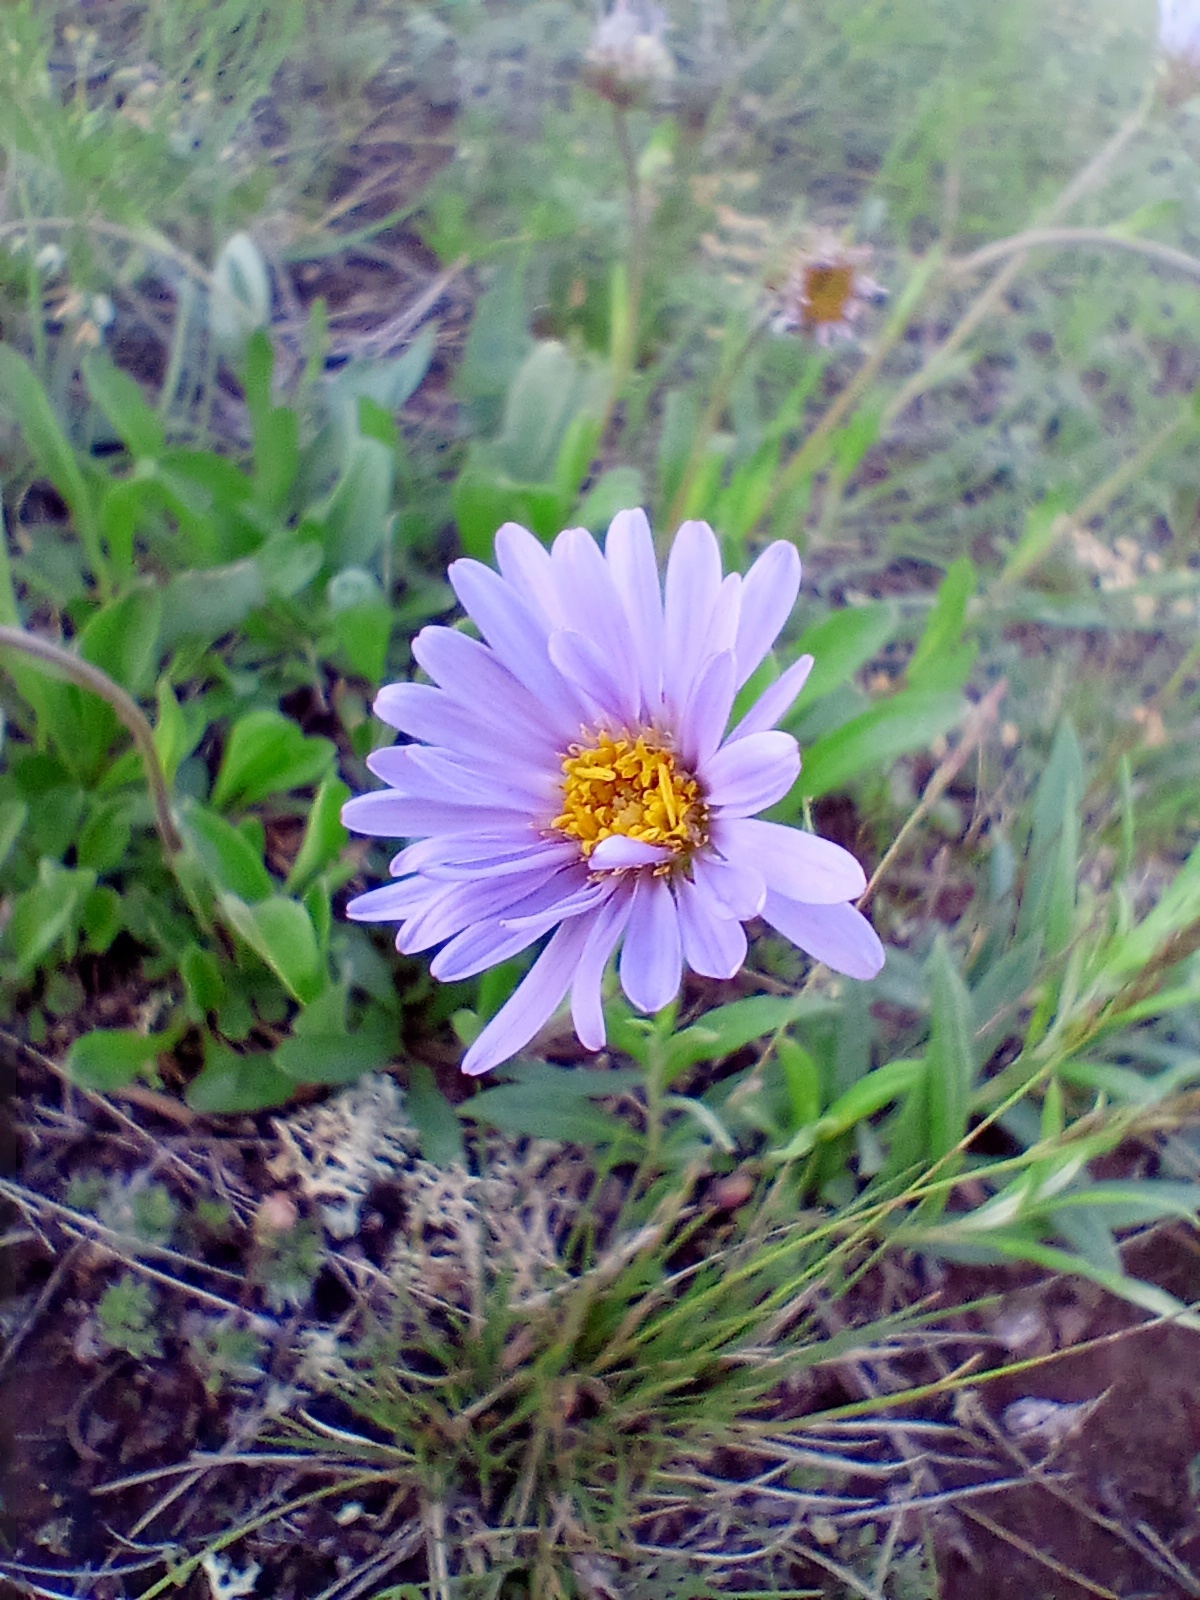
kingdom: Plantae
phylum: Tracheophyta
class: Magnoliopsida
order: Asterales
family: Asteraceae
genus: Aster
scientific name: Aster alpinus
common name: Alpine aster
